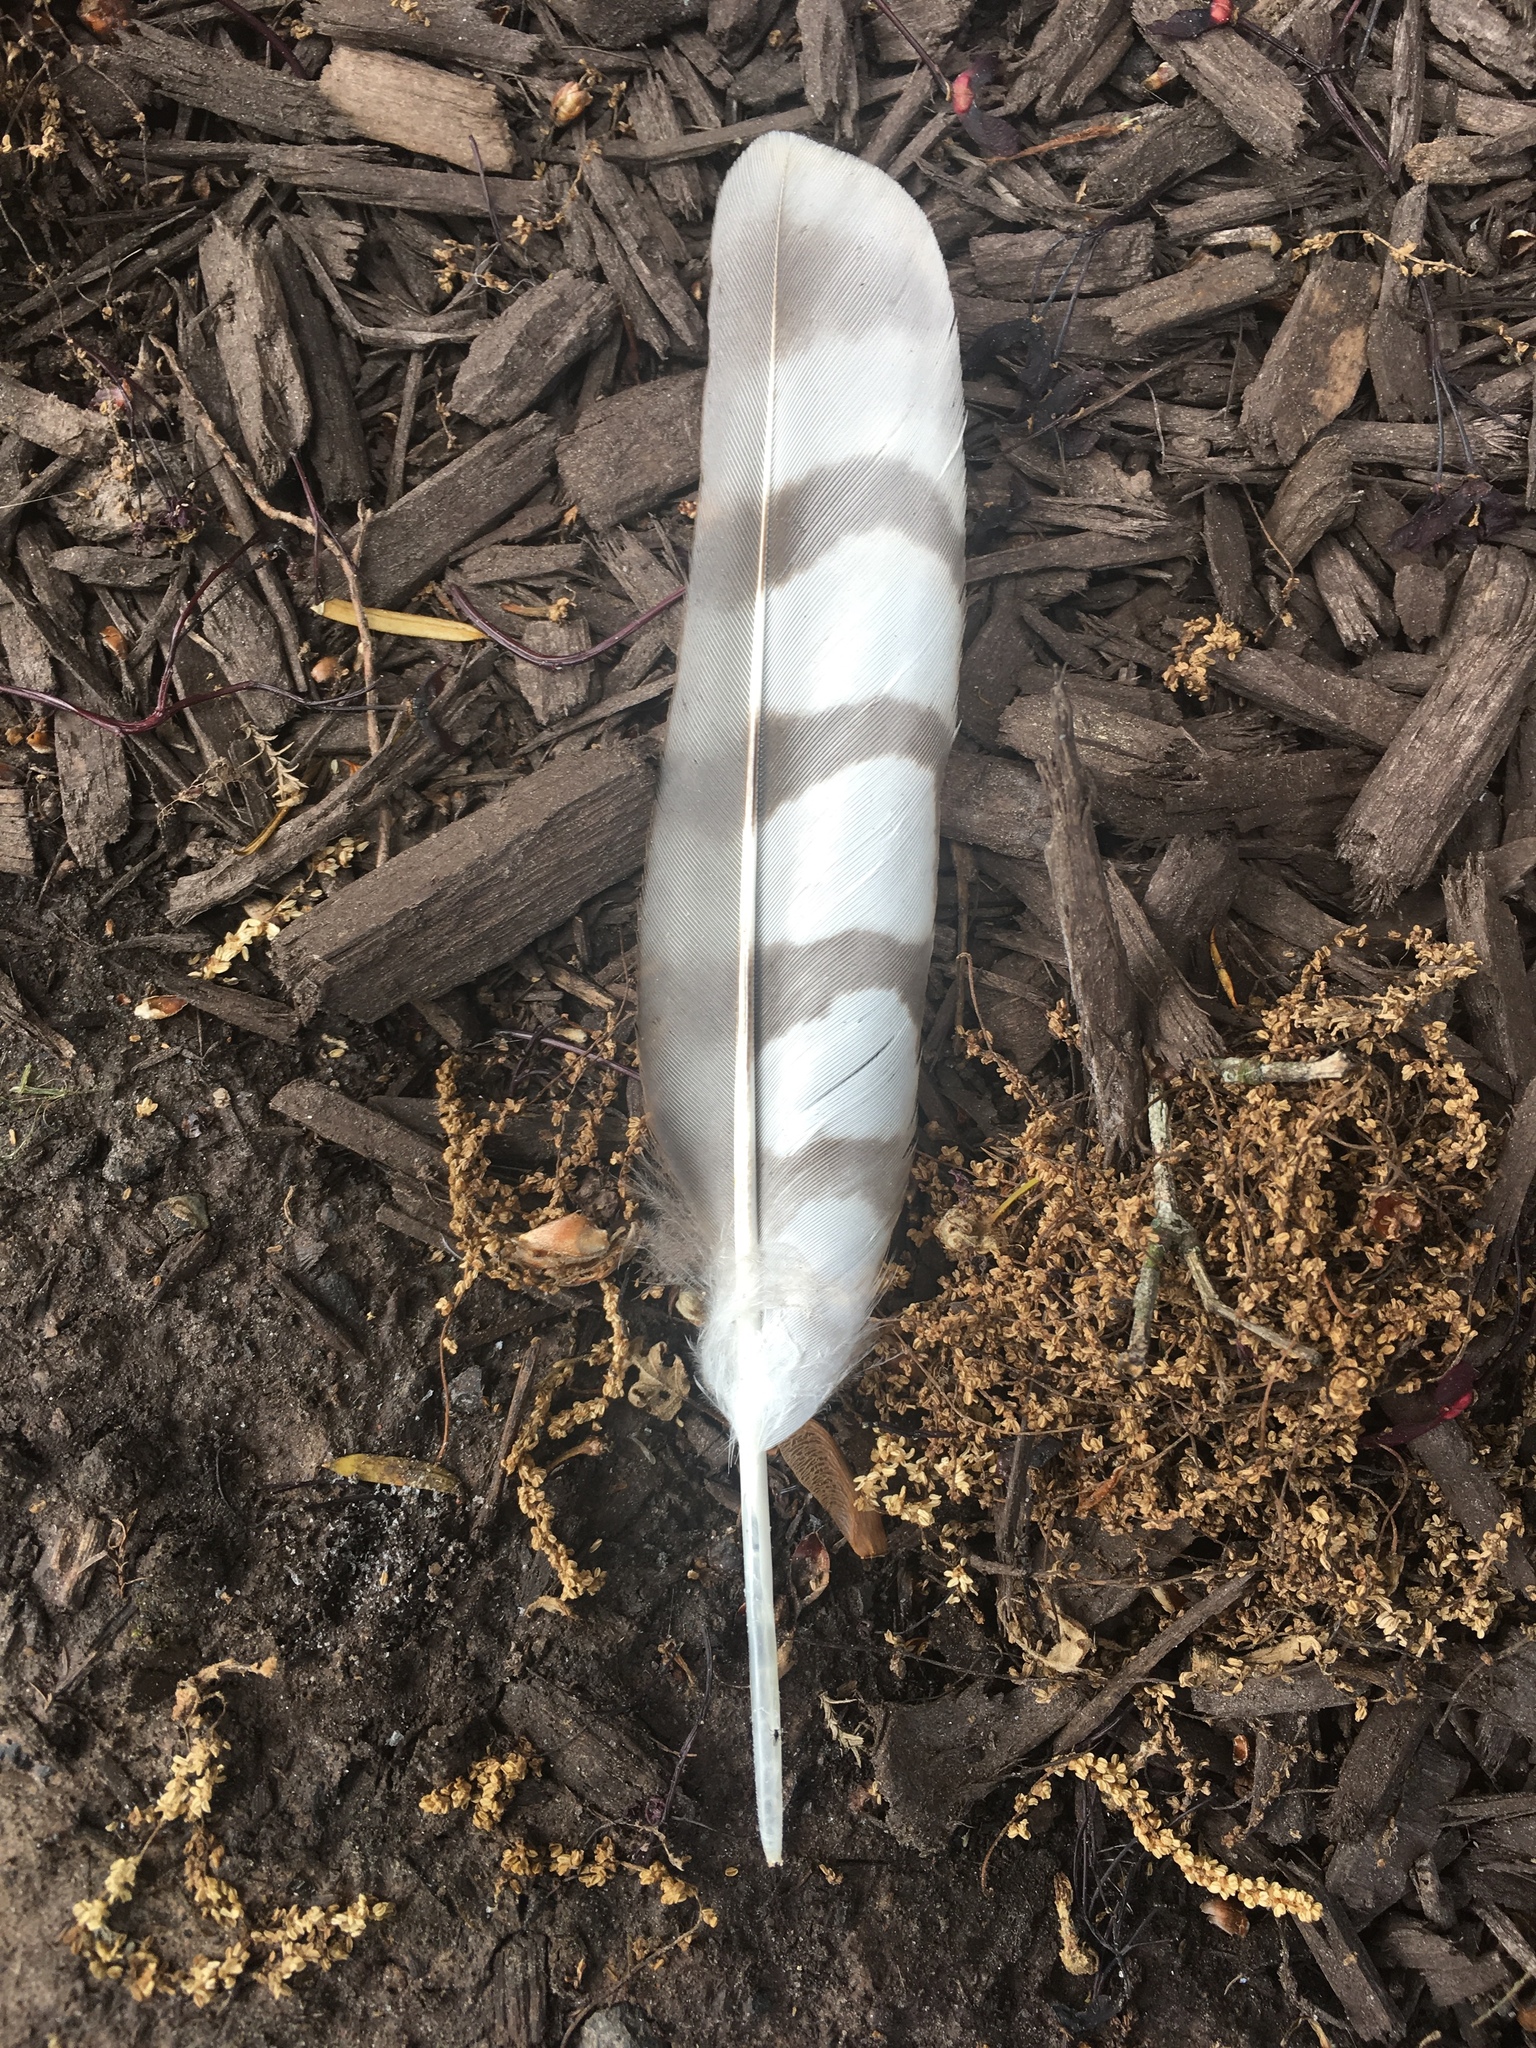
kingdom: Animalia
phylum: Chordata
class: Aves
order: Accipitriformes
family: Accipitridae
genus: Accipiter
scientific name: Accipiter striatus
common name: Sharp-shinned hawk
